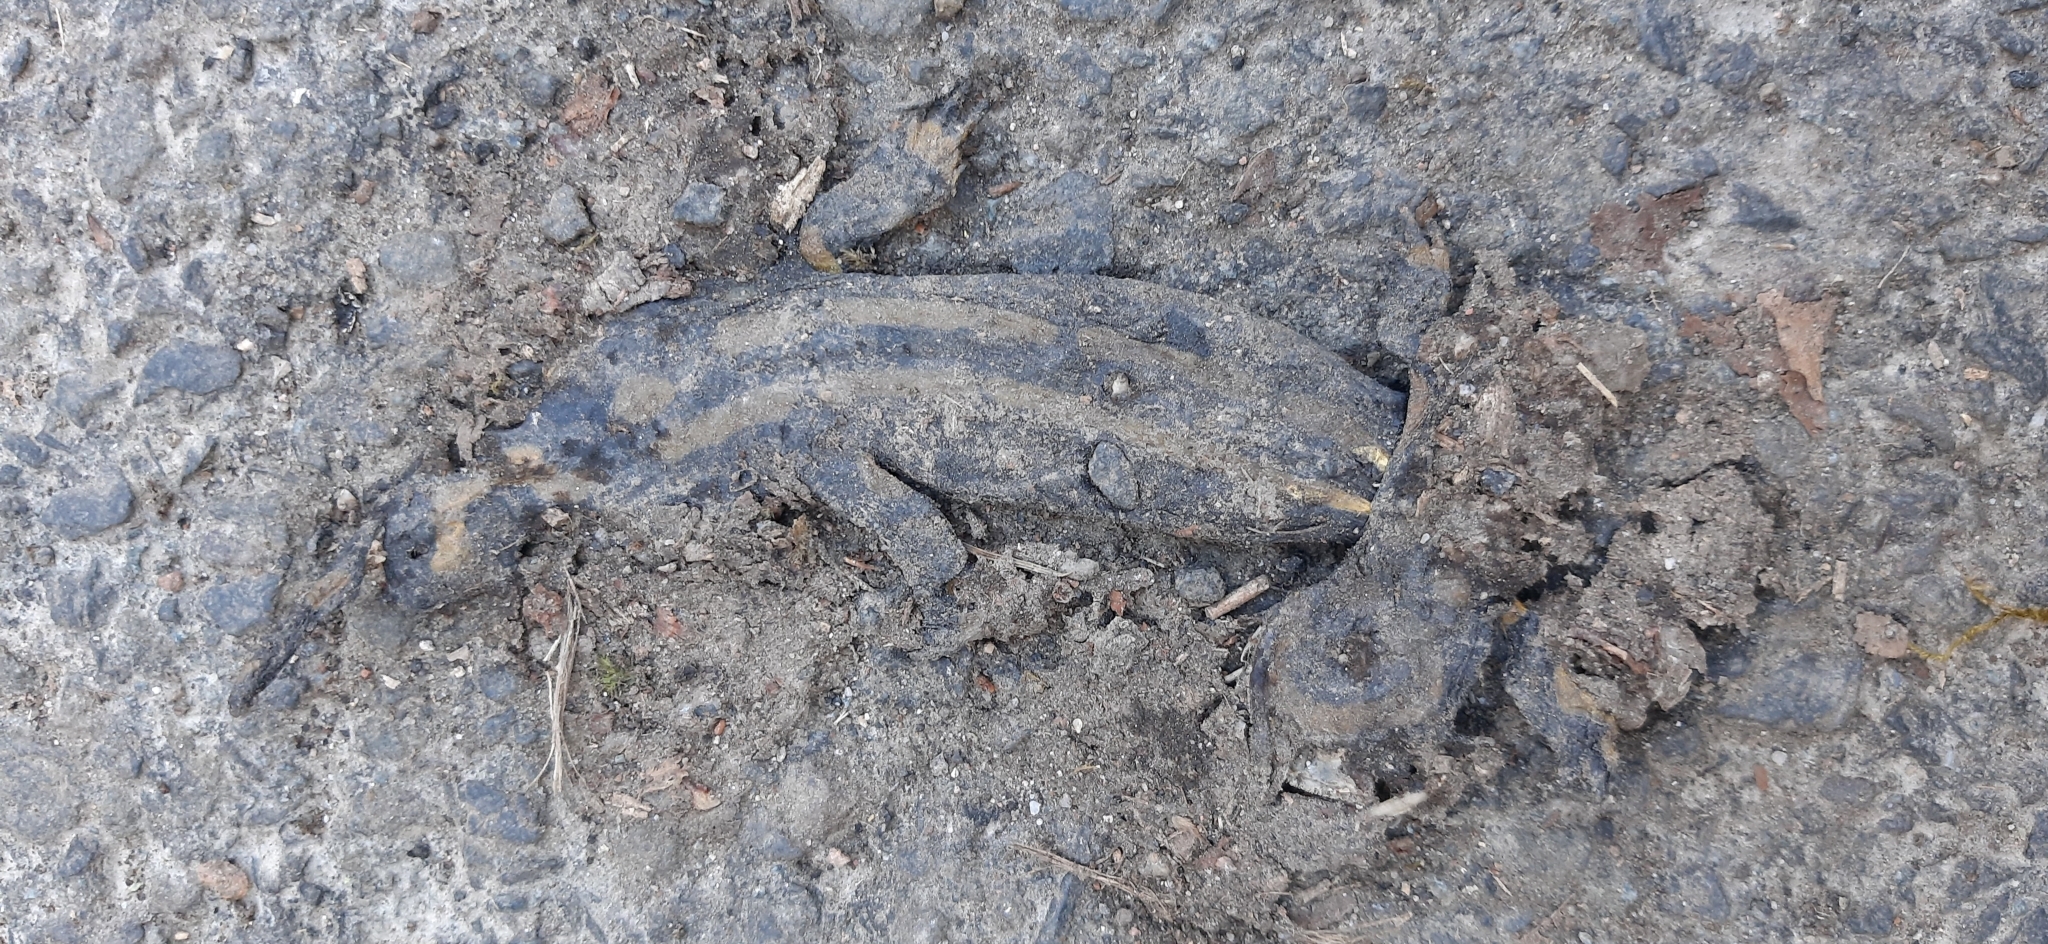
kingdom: Animalia
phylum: Chordata
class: Amphibia
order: Caudata
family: Salamandridae
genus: Salamandra
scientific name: Salamandra salamandra
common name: Fire salamander
